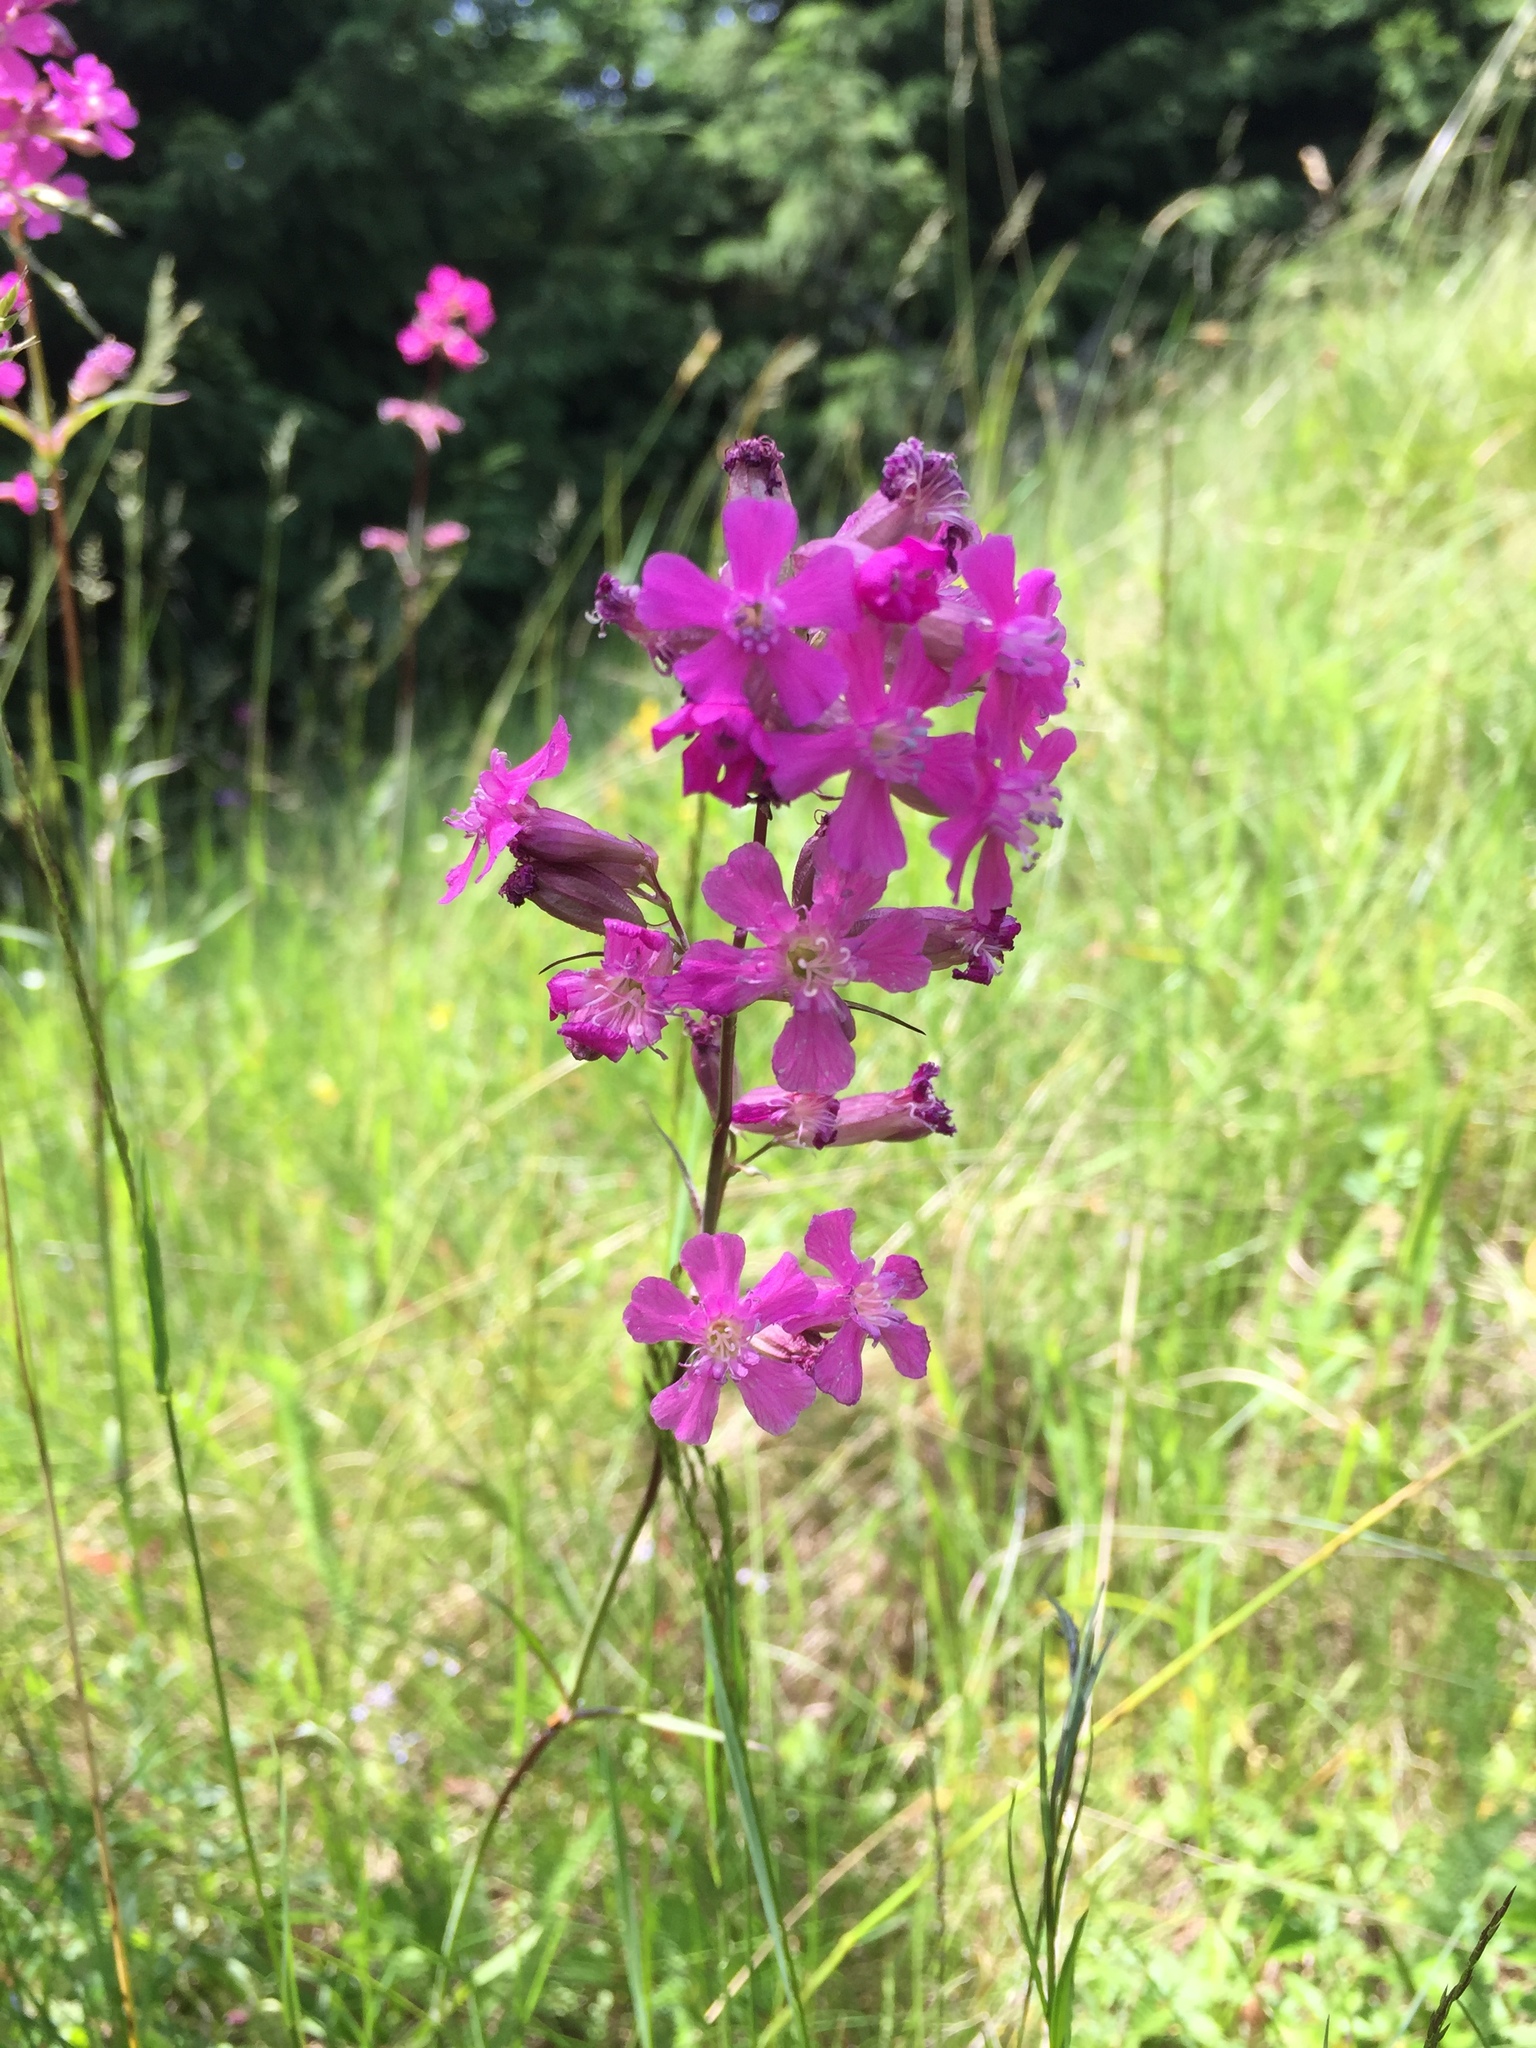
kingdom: Plantae
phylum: Tracheophyta
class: Magnoliopsida
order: Caryophyllales
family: Caryophyllaceae
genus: Viscaria
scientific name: Viscaria vulgaris
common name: Clammy campion
